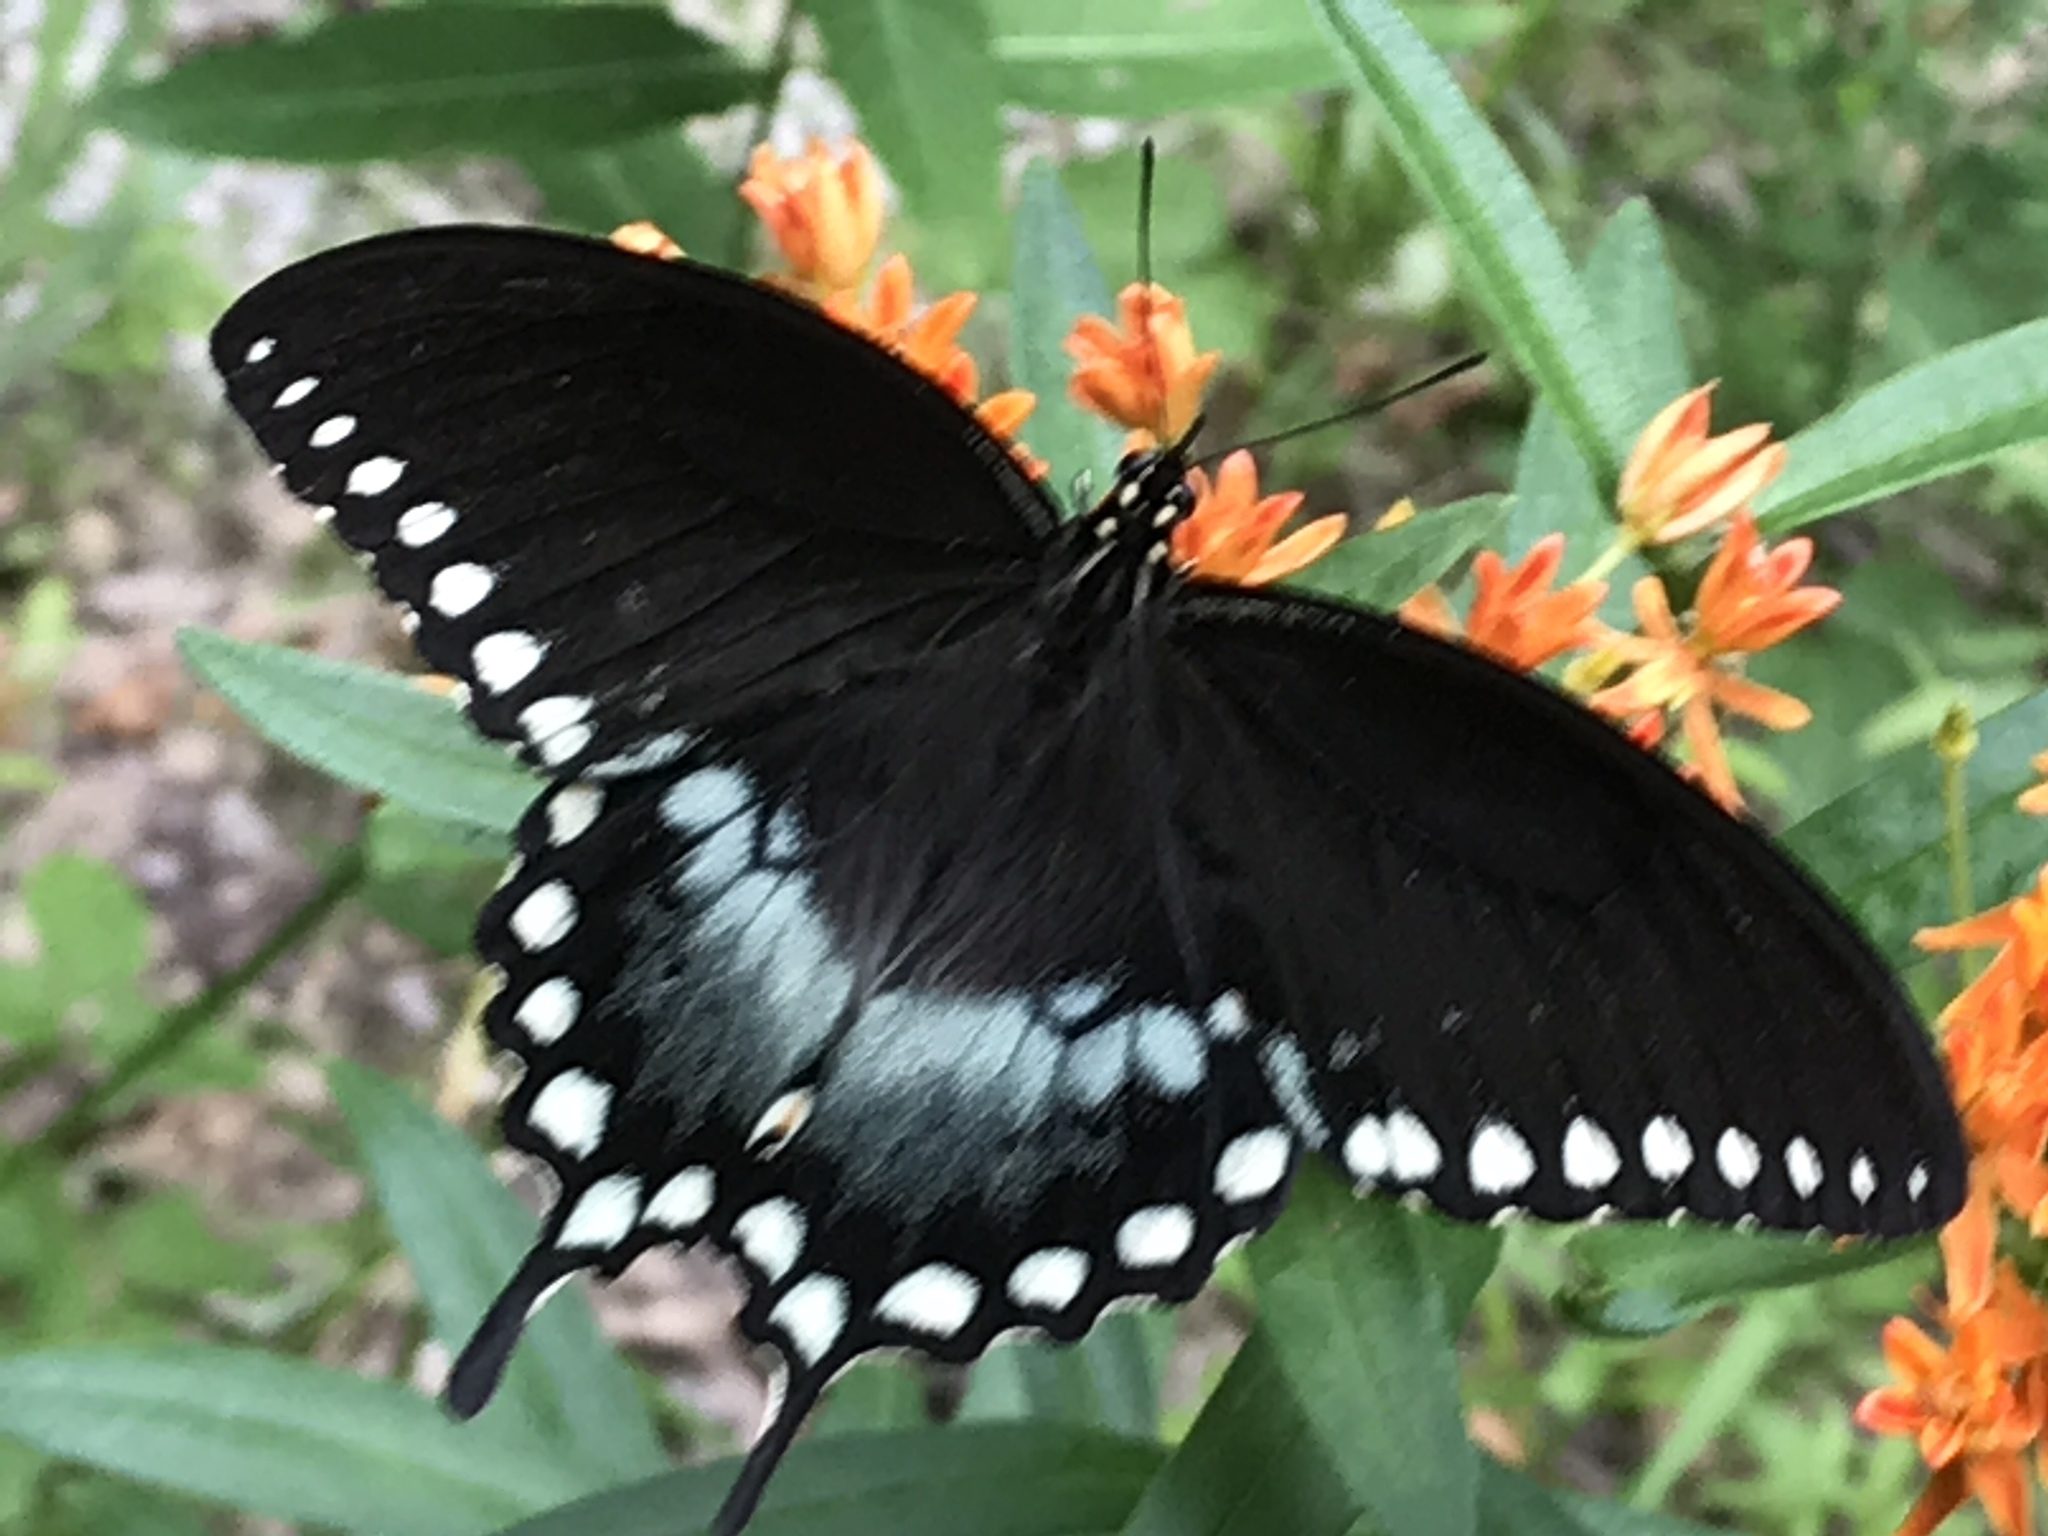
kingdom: Animalia
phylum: Arthropoda
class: Insecta
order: Lepidoptera
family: Papilionidae
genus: Papilio
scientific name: Papilio troilus
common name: Spicebush swallowtail
